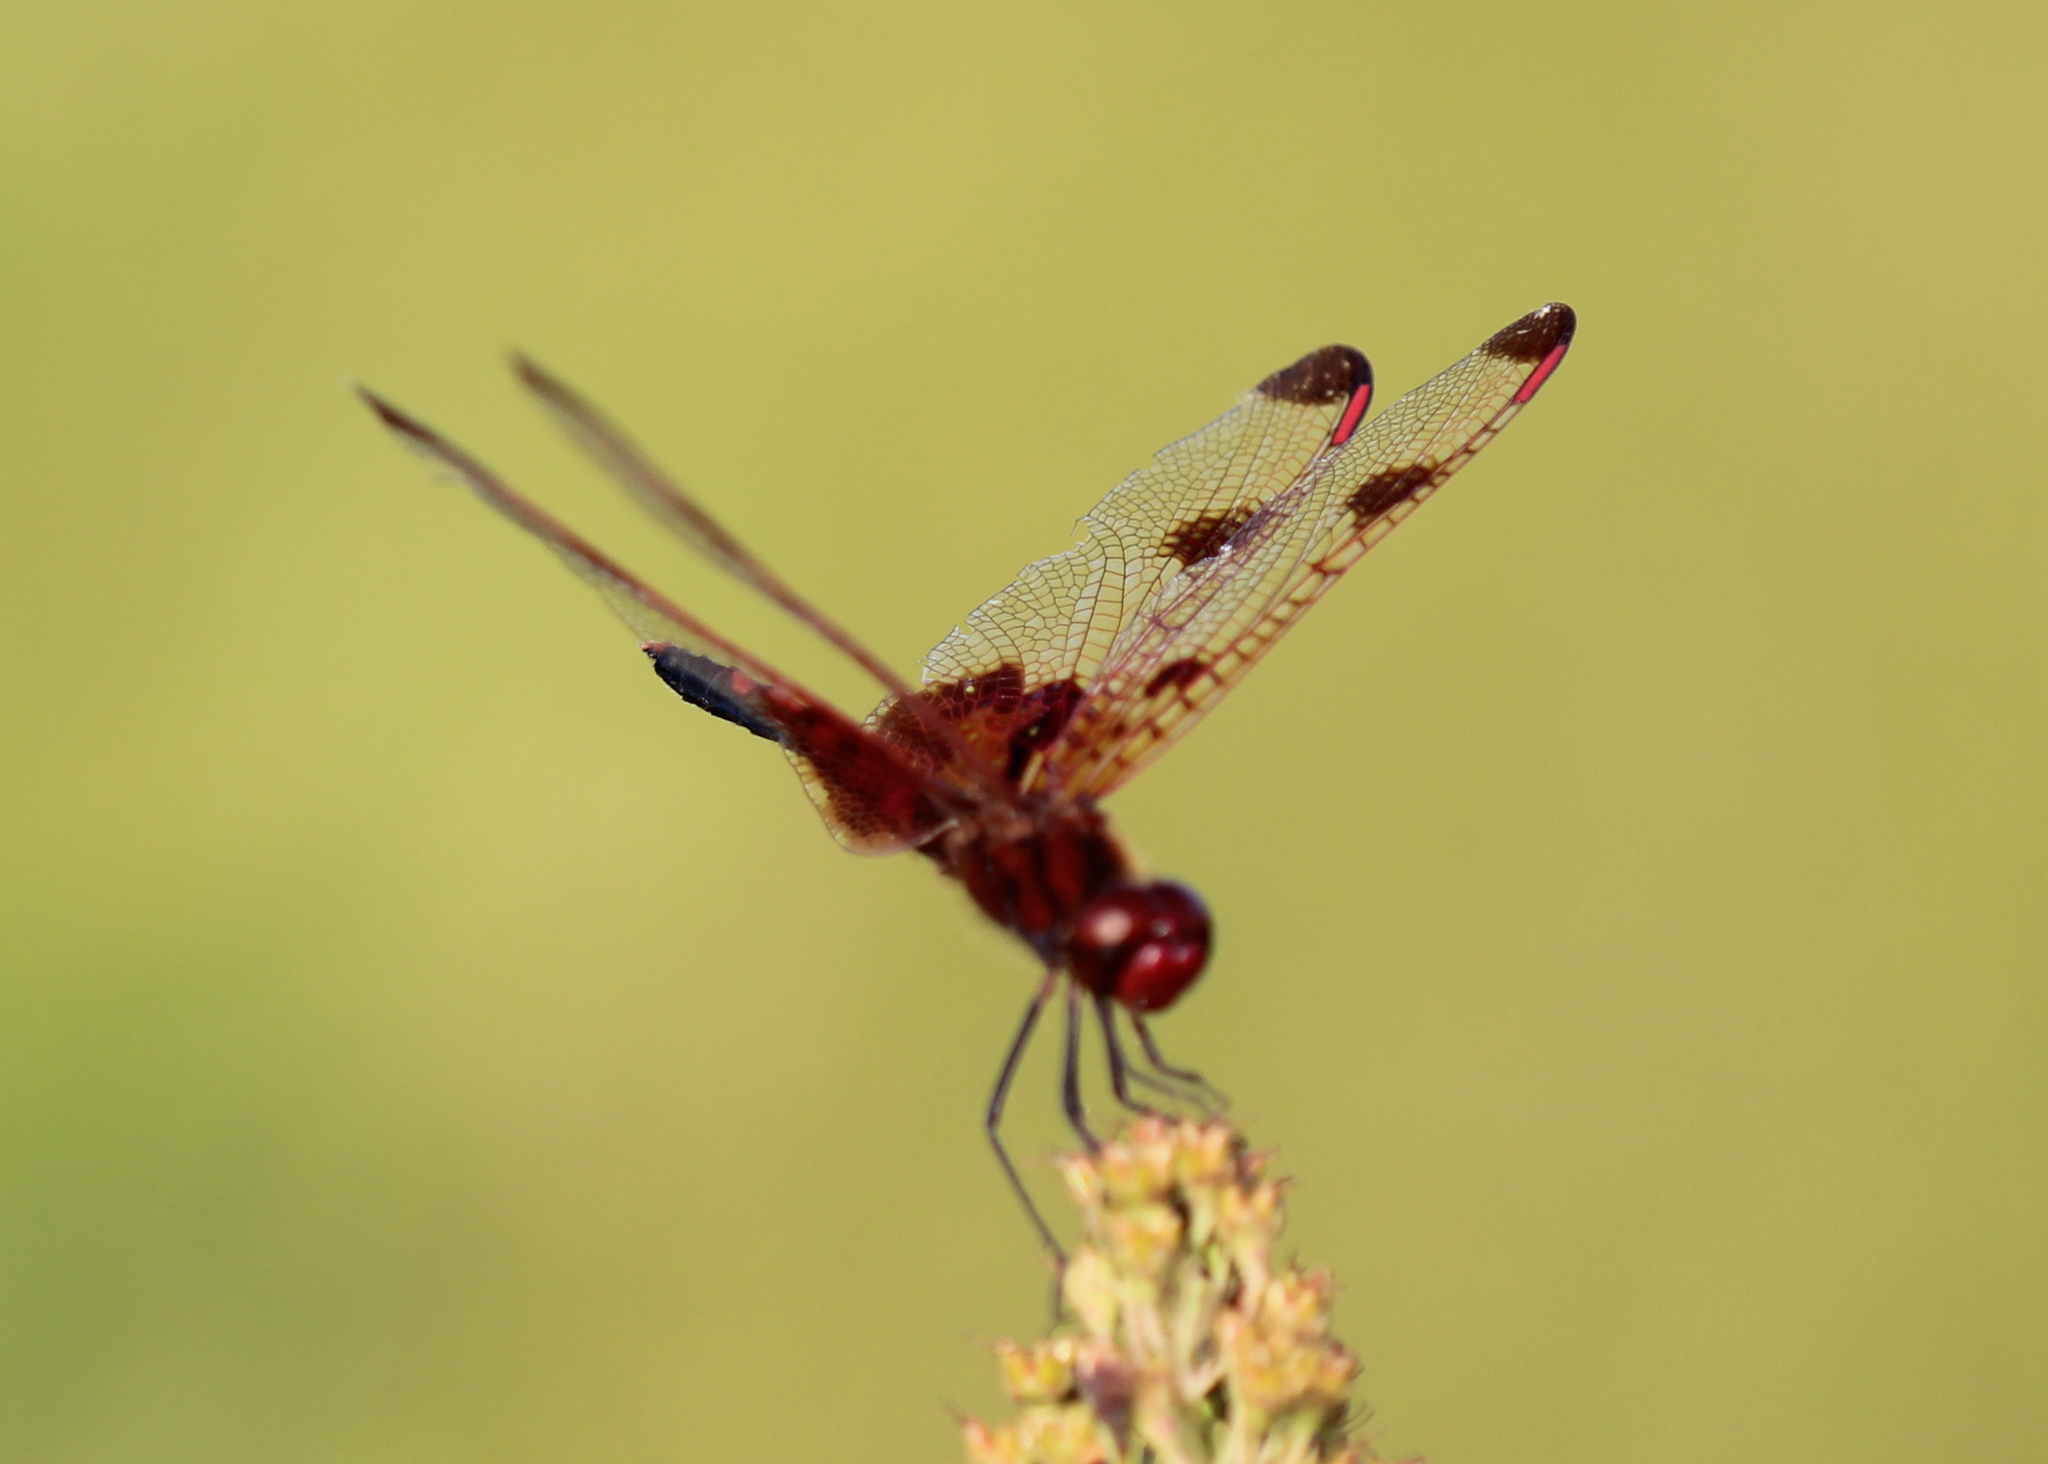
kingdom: Animalia
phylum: Arthropoda
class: Insecta
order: Odonata
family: Libellulidae
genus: Celithemis
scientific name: Celithemis elisa
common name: Calico pennant
